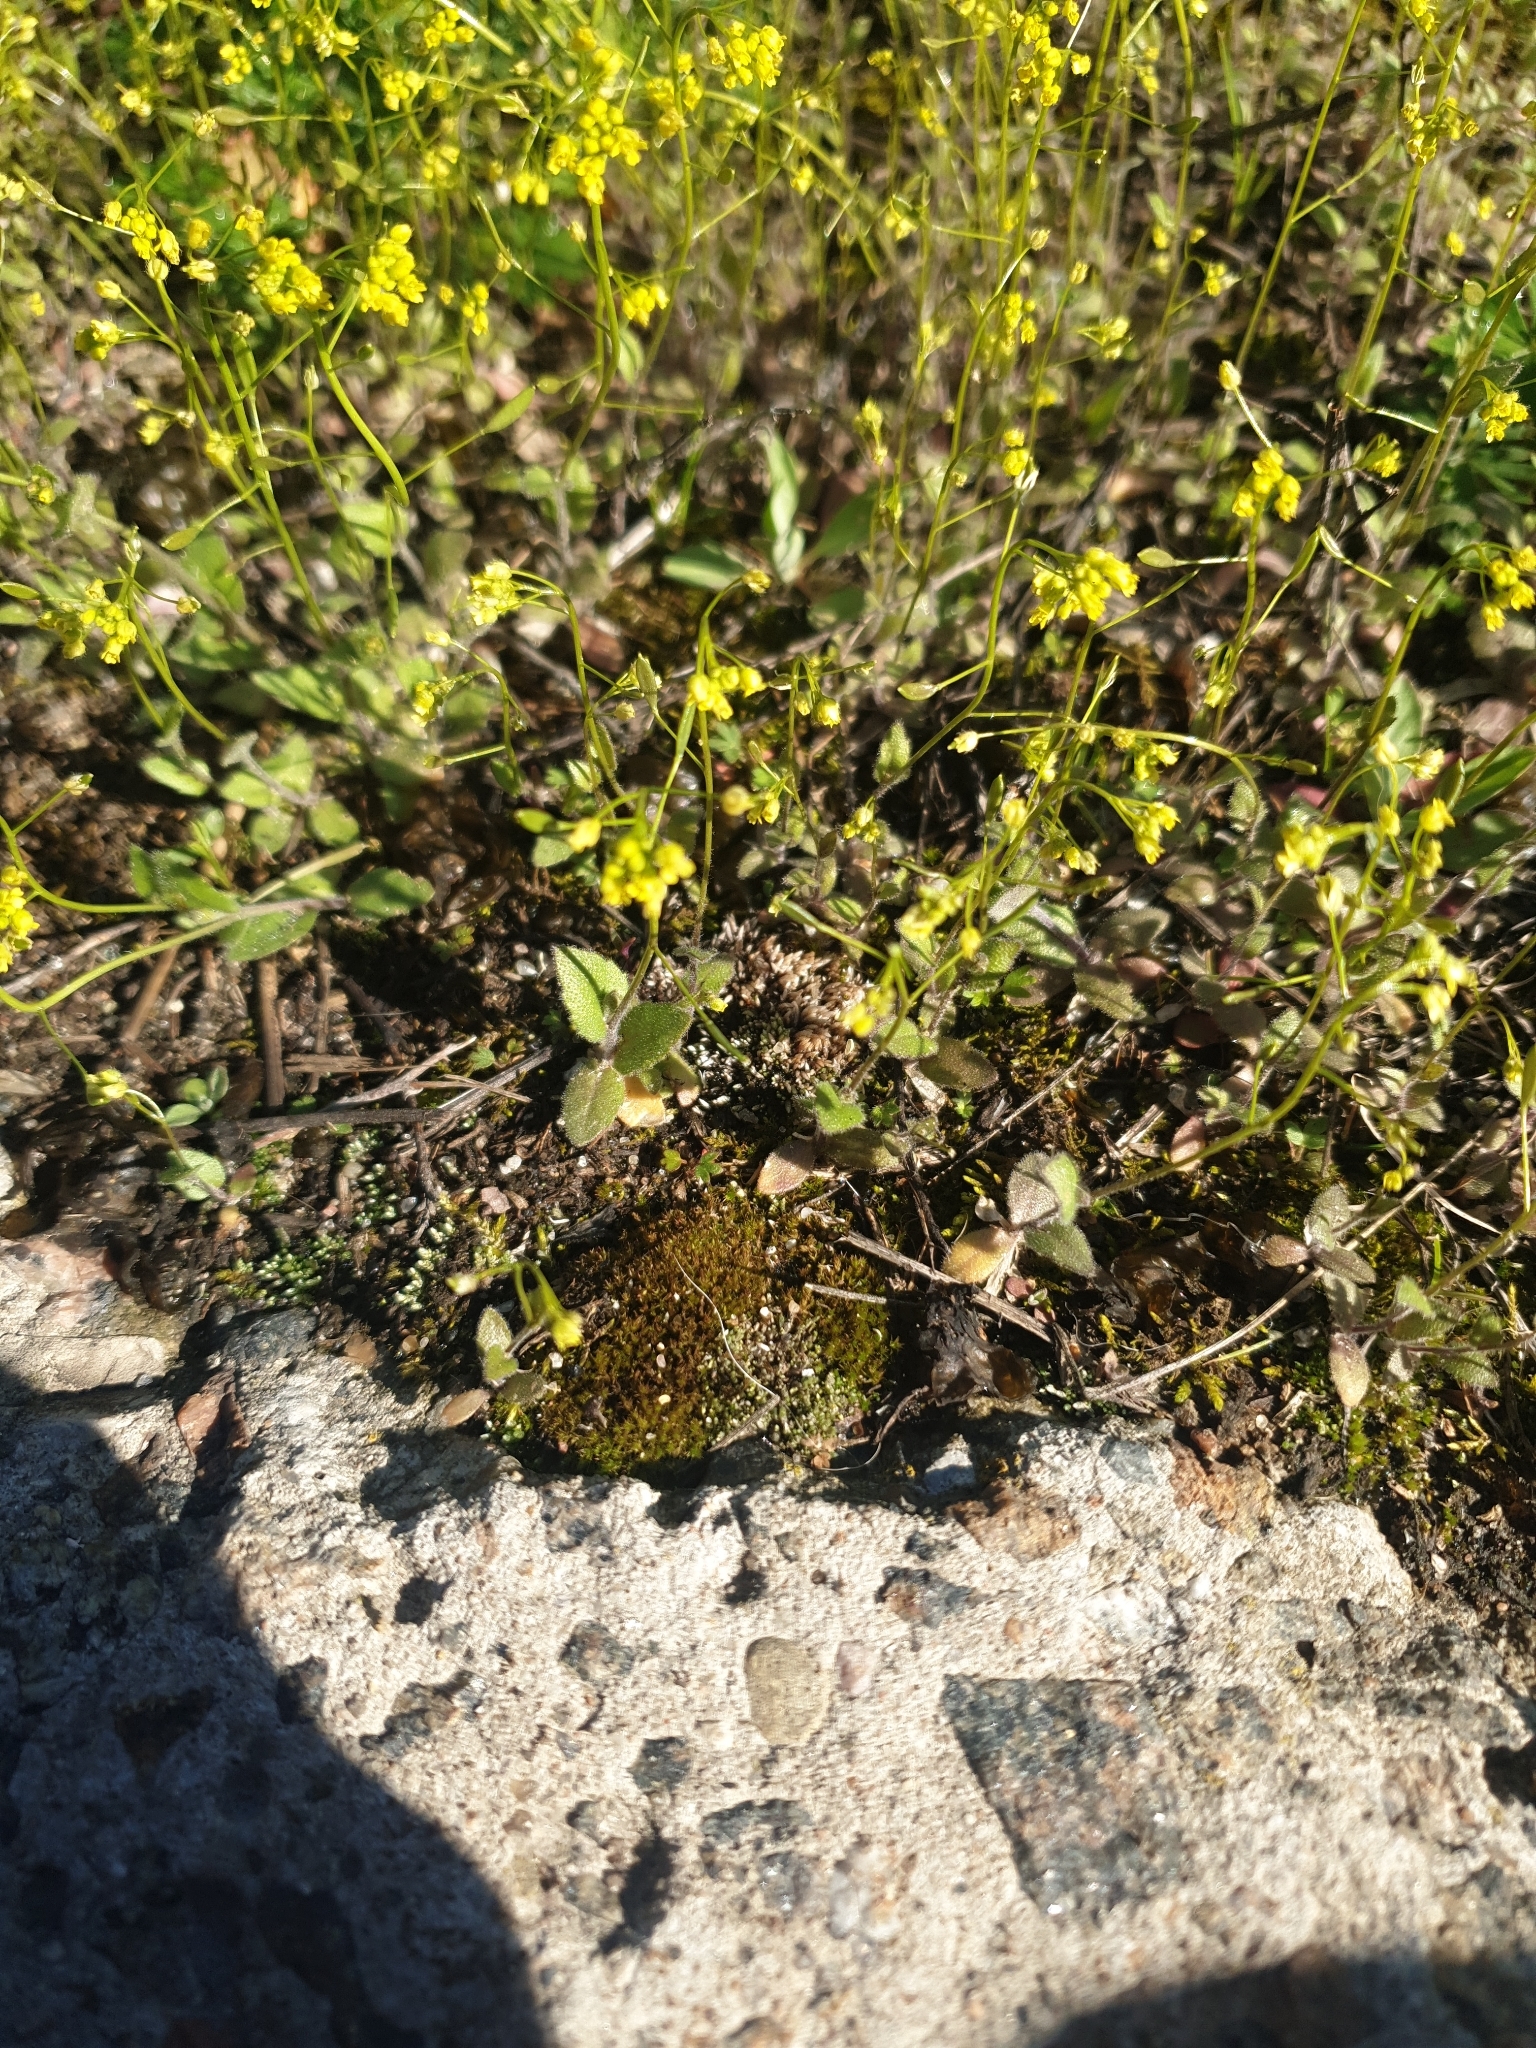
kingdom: Plantae
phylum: Tracheophyta
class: Magnoliopsida
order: Brassicales
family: Brassicaceae
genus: Draba
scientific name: Draba nemorosa
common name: Wood whitlow-grass
